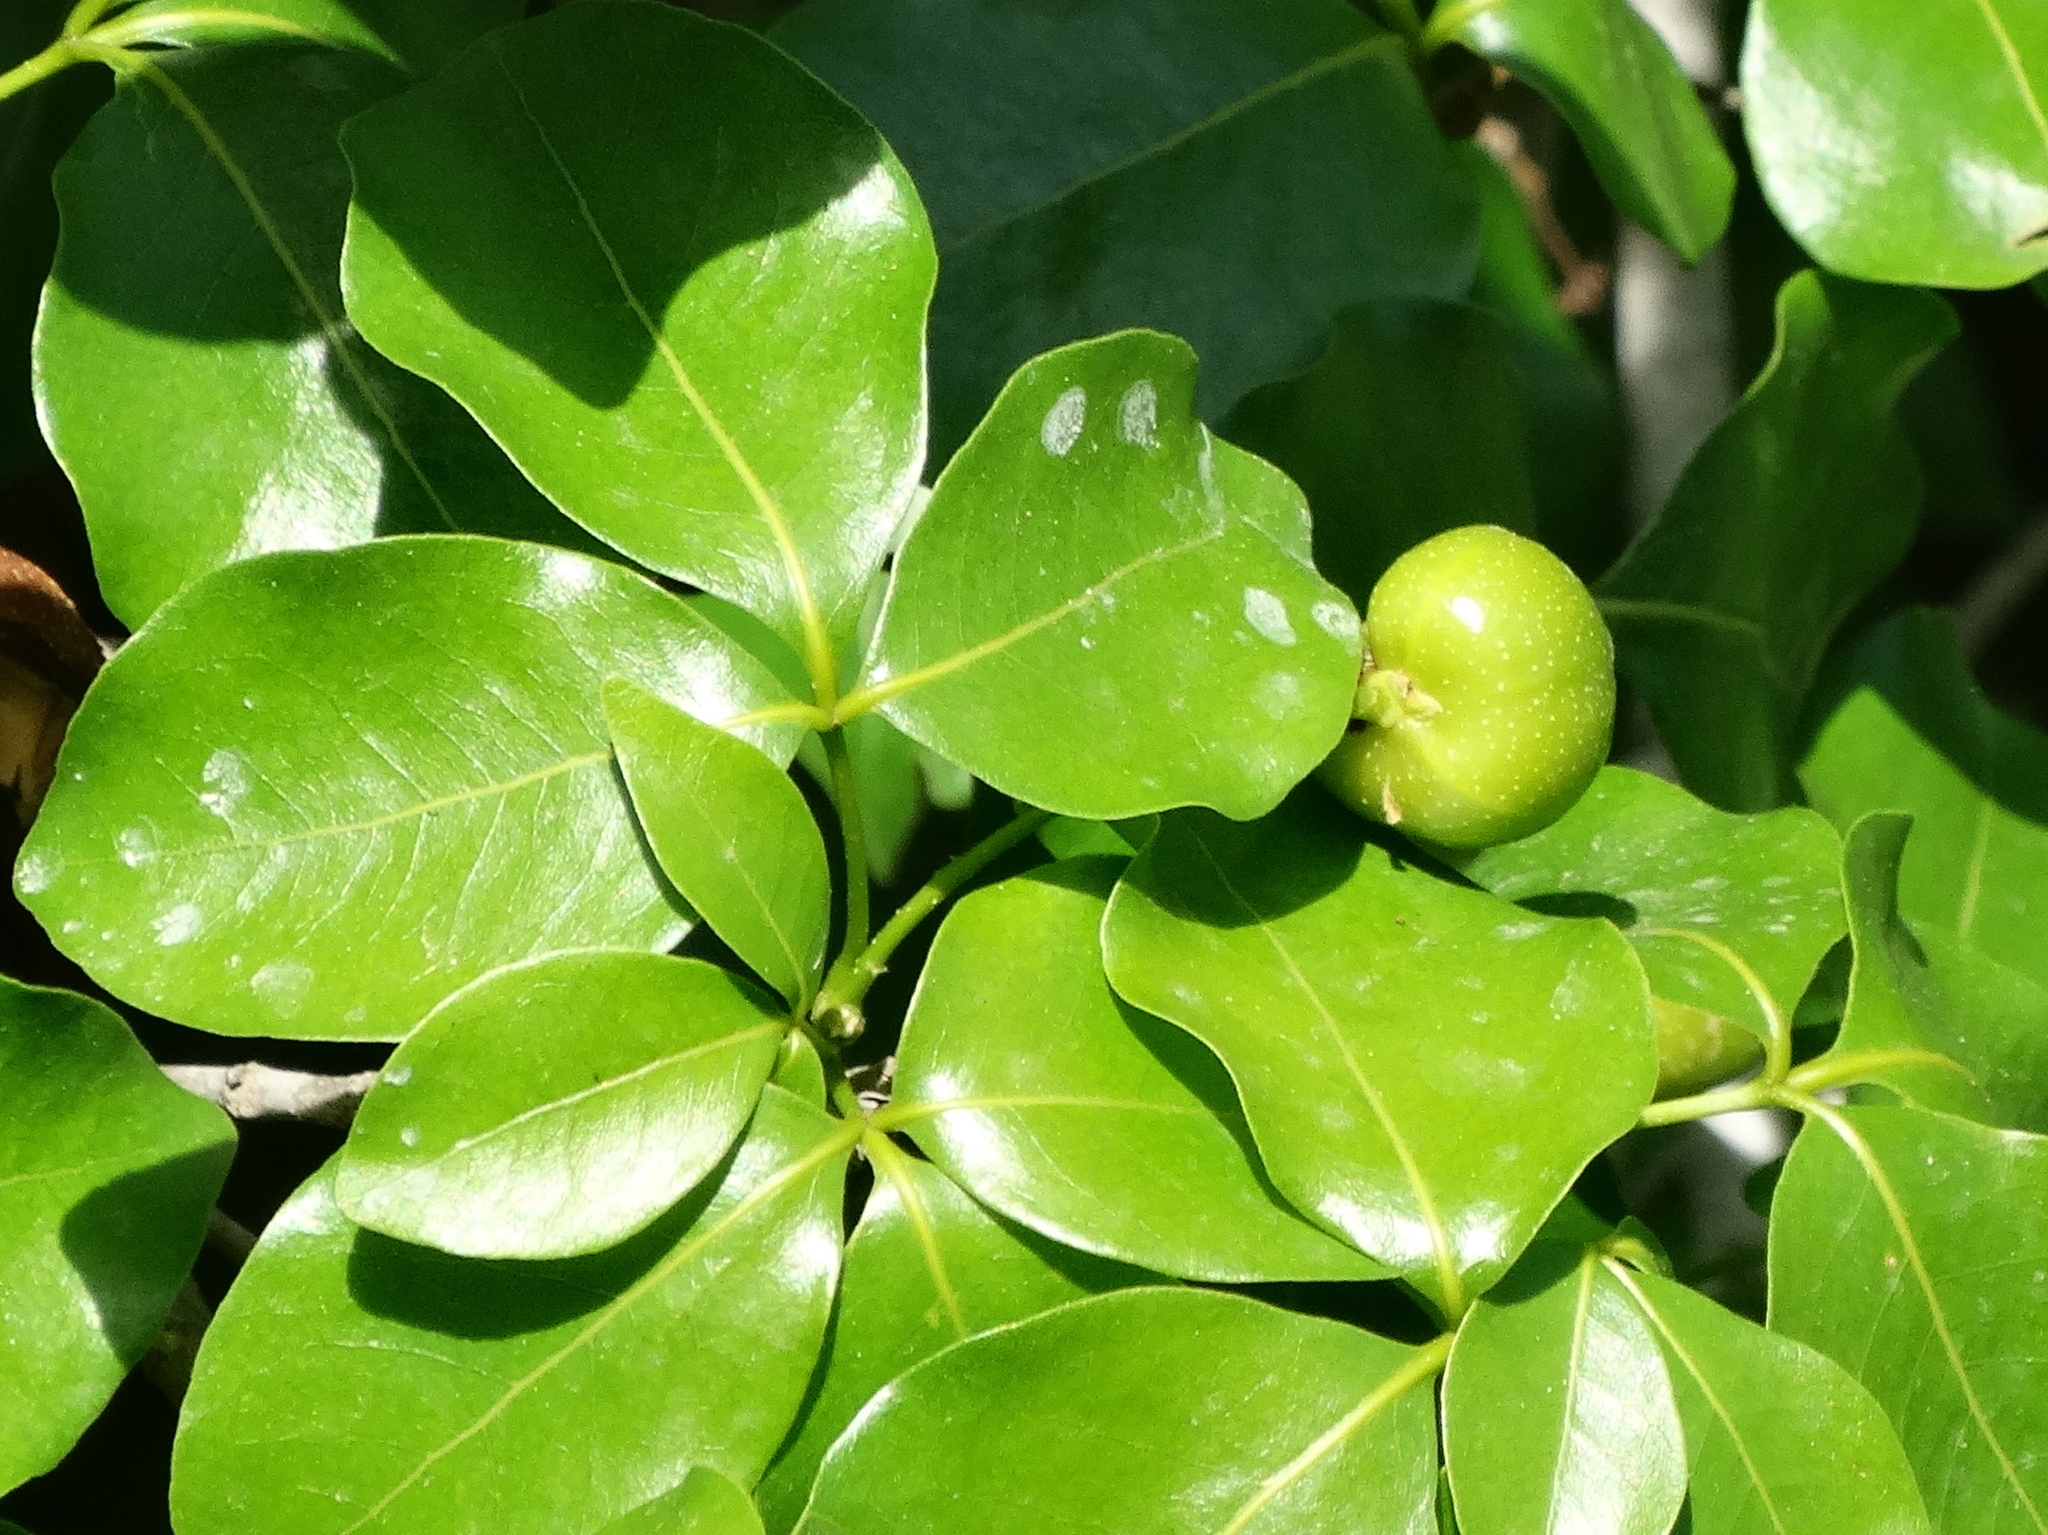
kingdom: Plantae
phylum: Tracheophyta
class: Magnoliopsida
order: Malpighiales
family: Picrodendraceae
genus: Piranhea
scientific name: Piranhea mexicana
